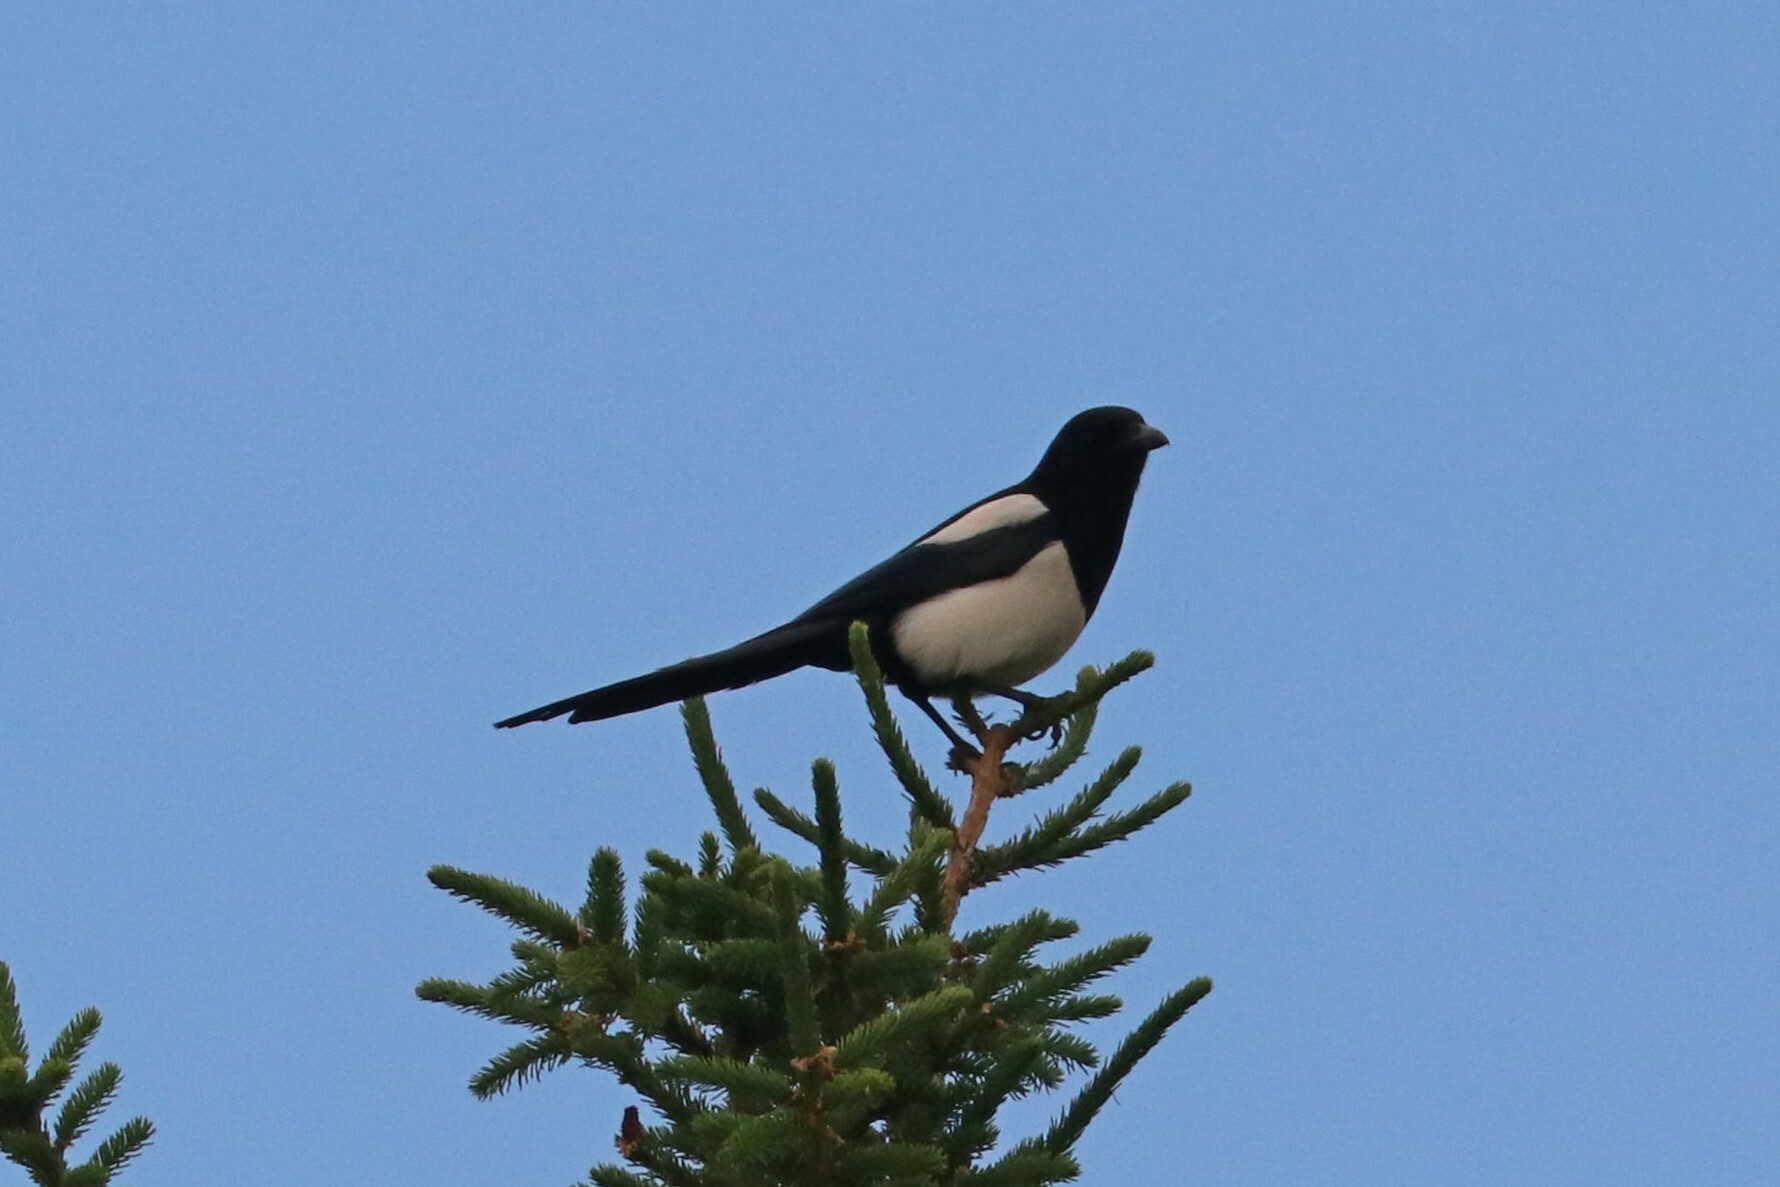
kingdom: Animalia
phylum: Chordata
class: Aves
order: Passeriformes
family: Corvidae
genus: Pica
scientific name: Pica pica
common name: Eurasian magpie
